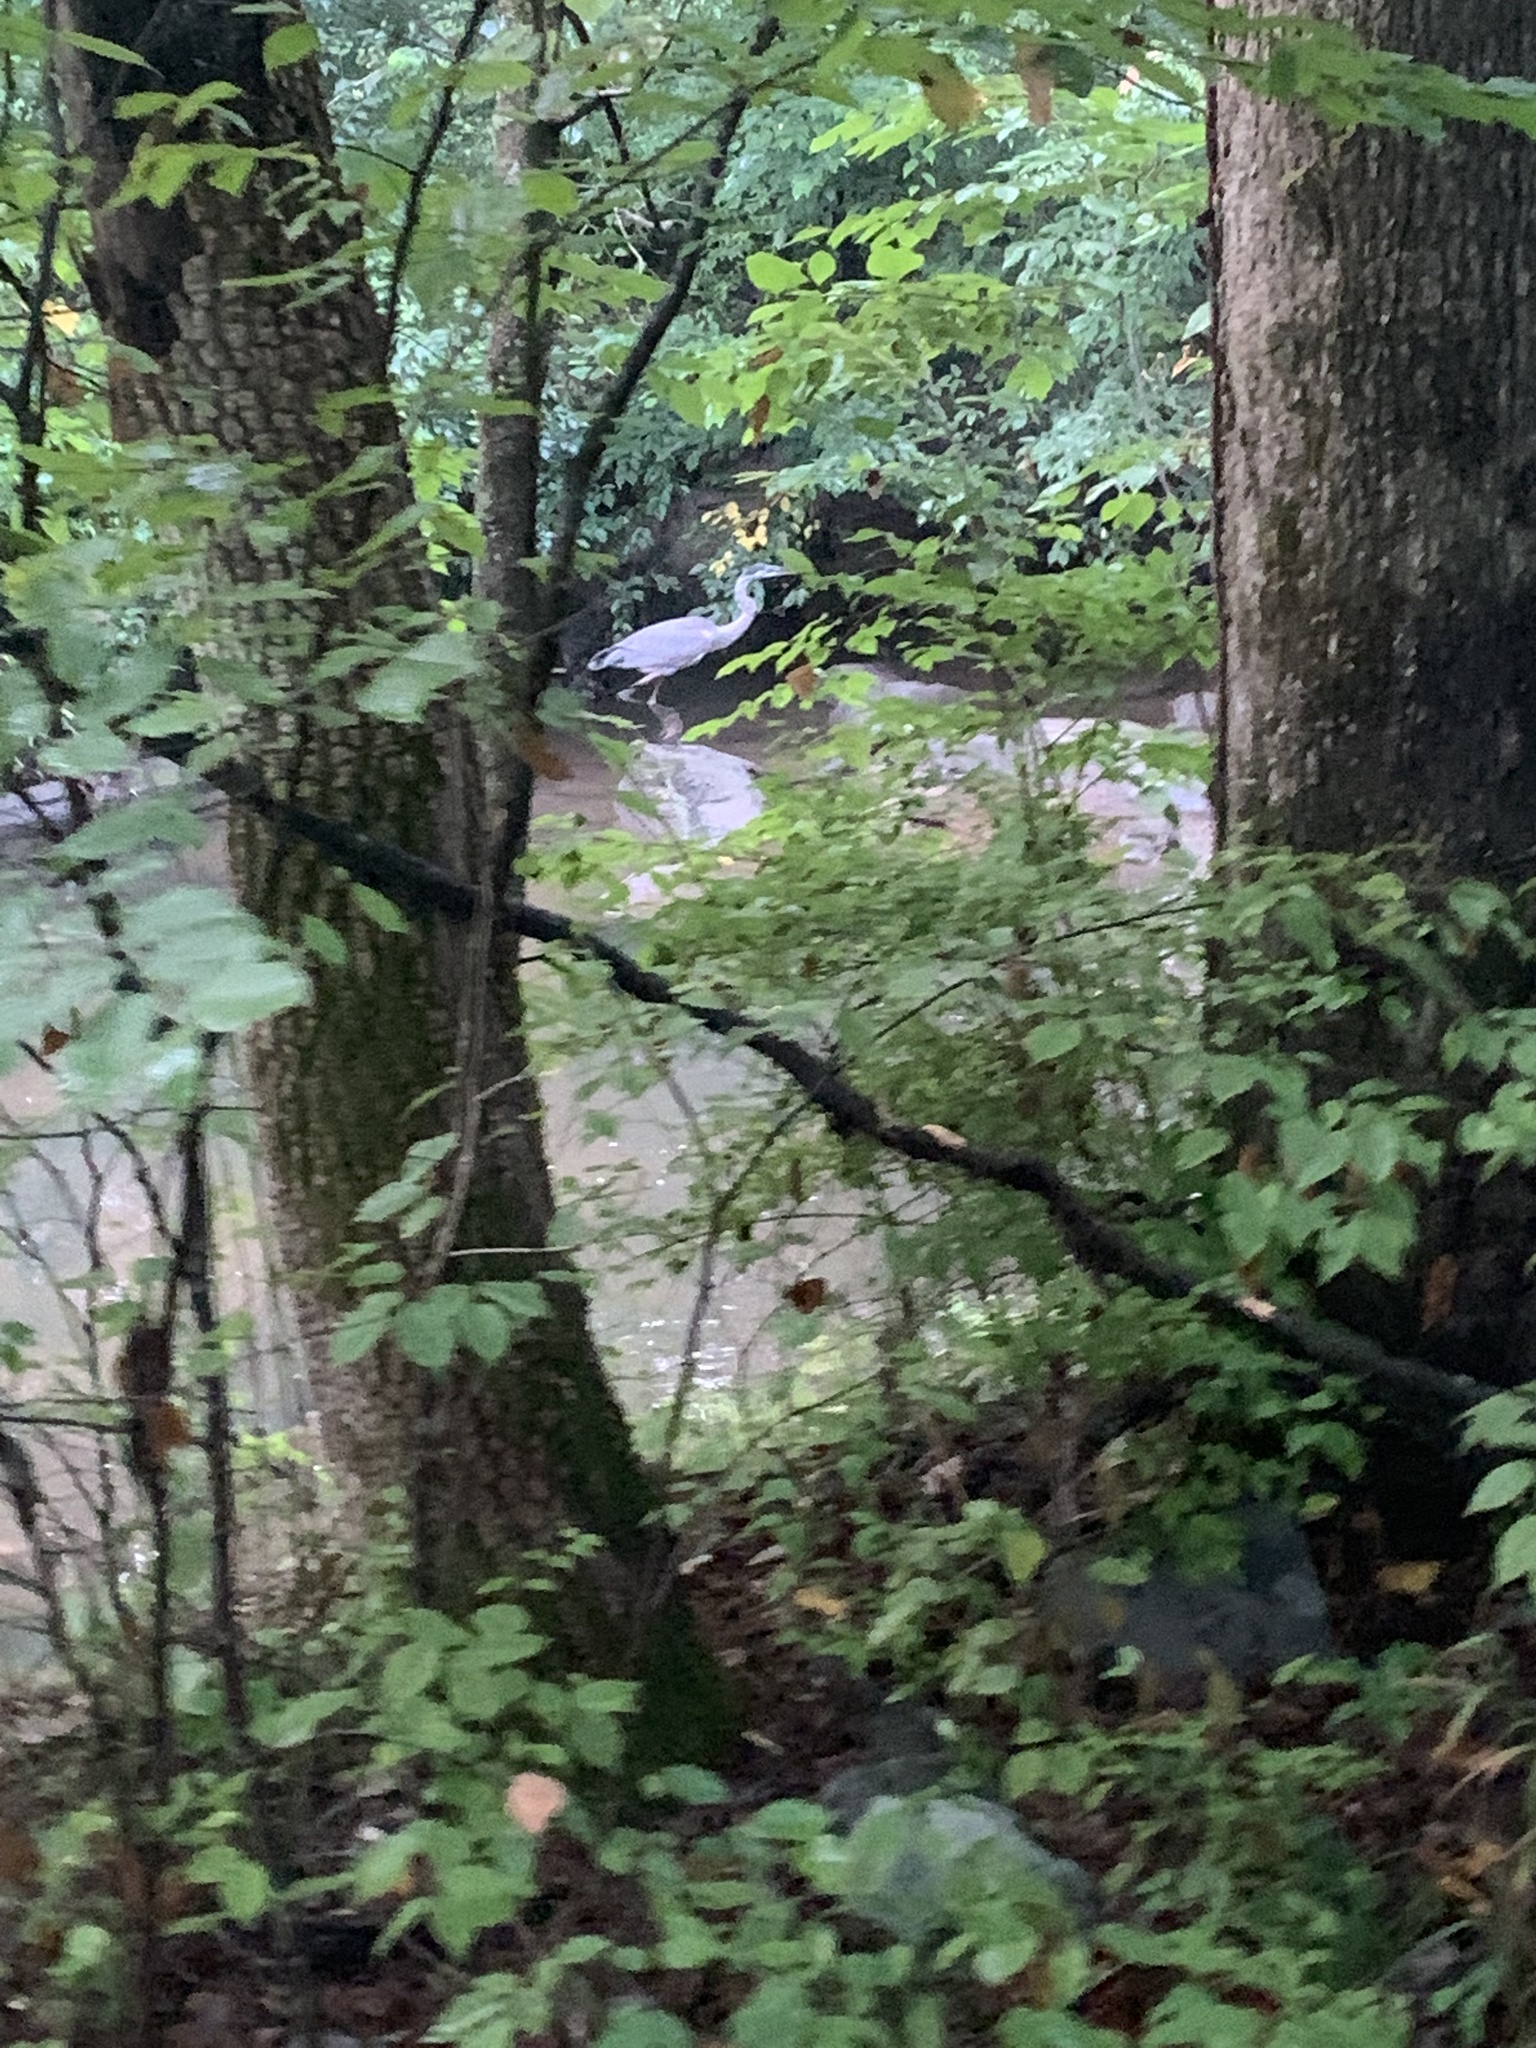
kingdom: Animalia
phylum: Chordata
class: Aves
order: Pelecaniformes
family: Ardeidae
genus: Ardea
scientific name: Ardea herodias
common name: Great blue heron
